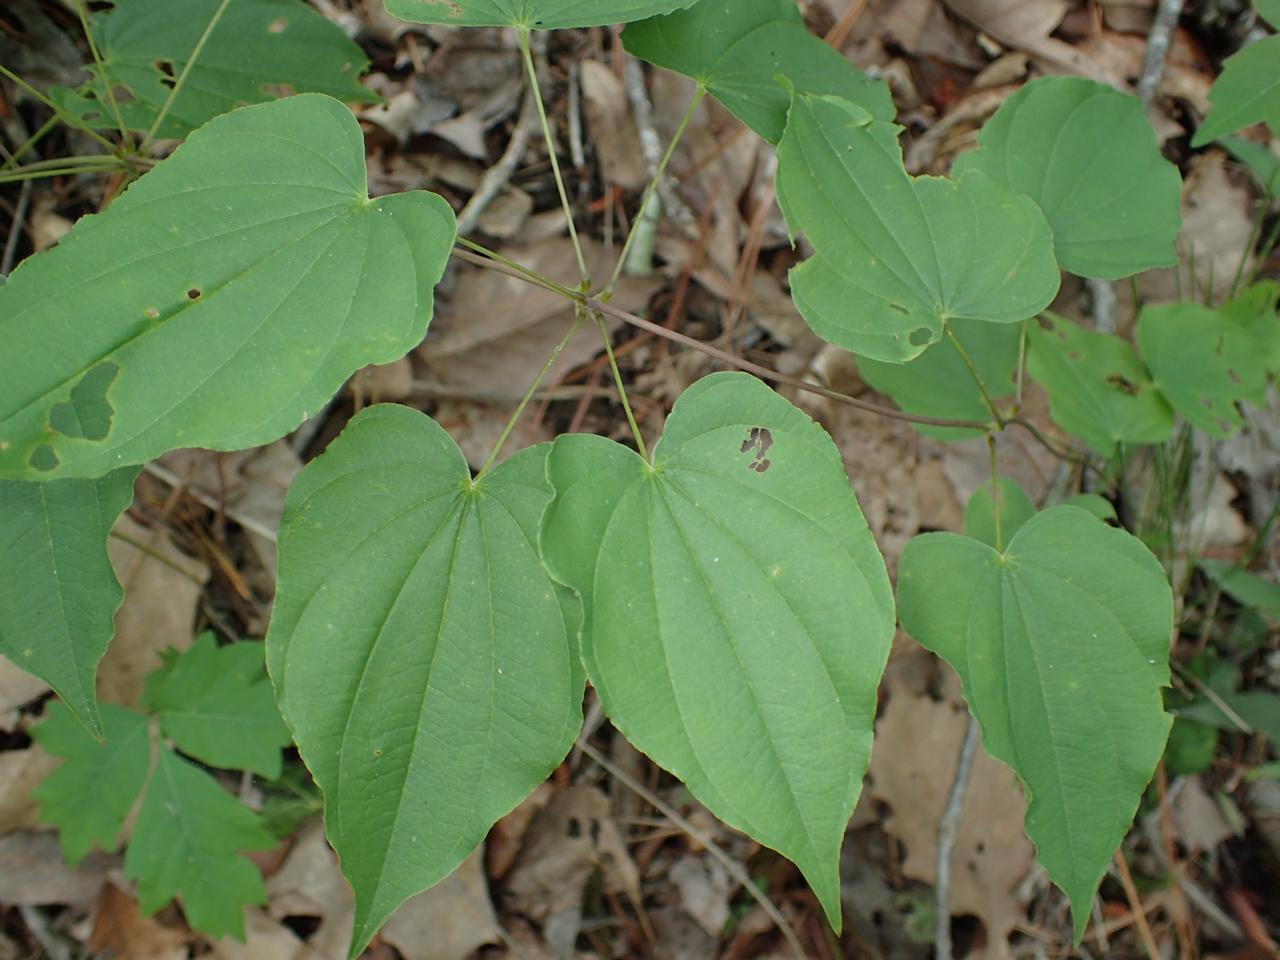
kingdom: Plantae
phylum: Tracheophyta
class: Liliopsida
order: Dioscoreales
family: Dioscoreaceae
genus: Dioscorea
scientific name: Dioscorea villosa
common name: Wild yam
